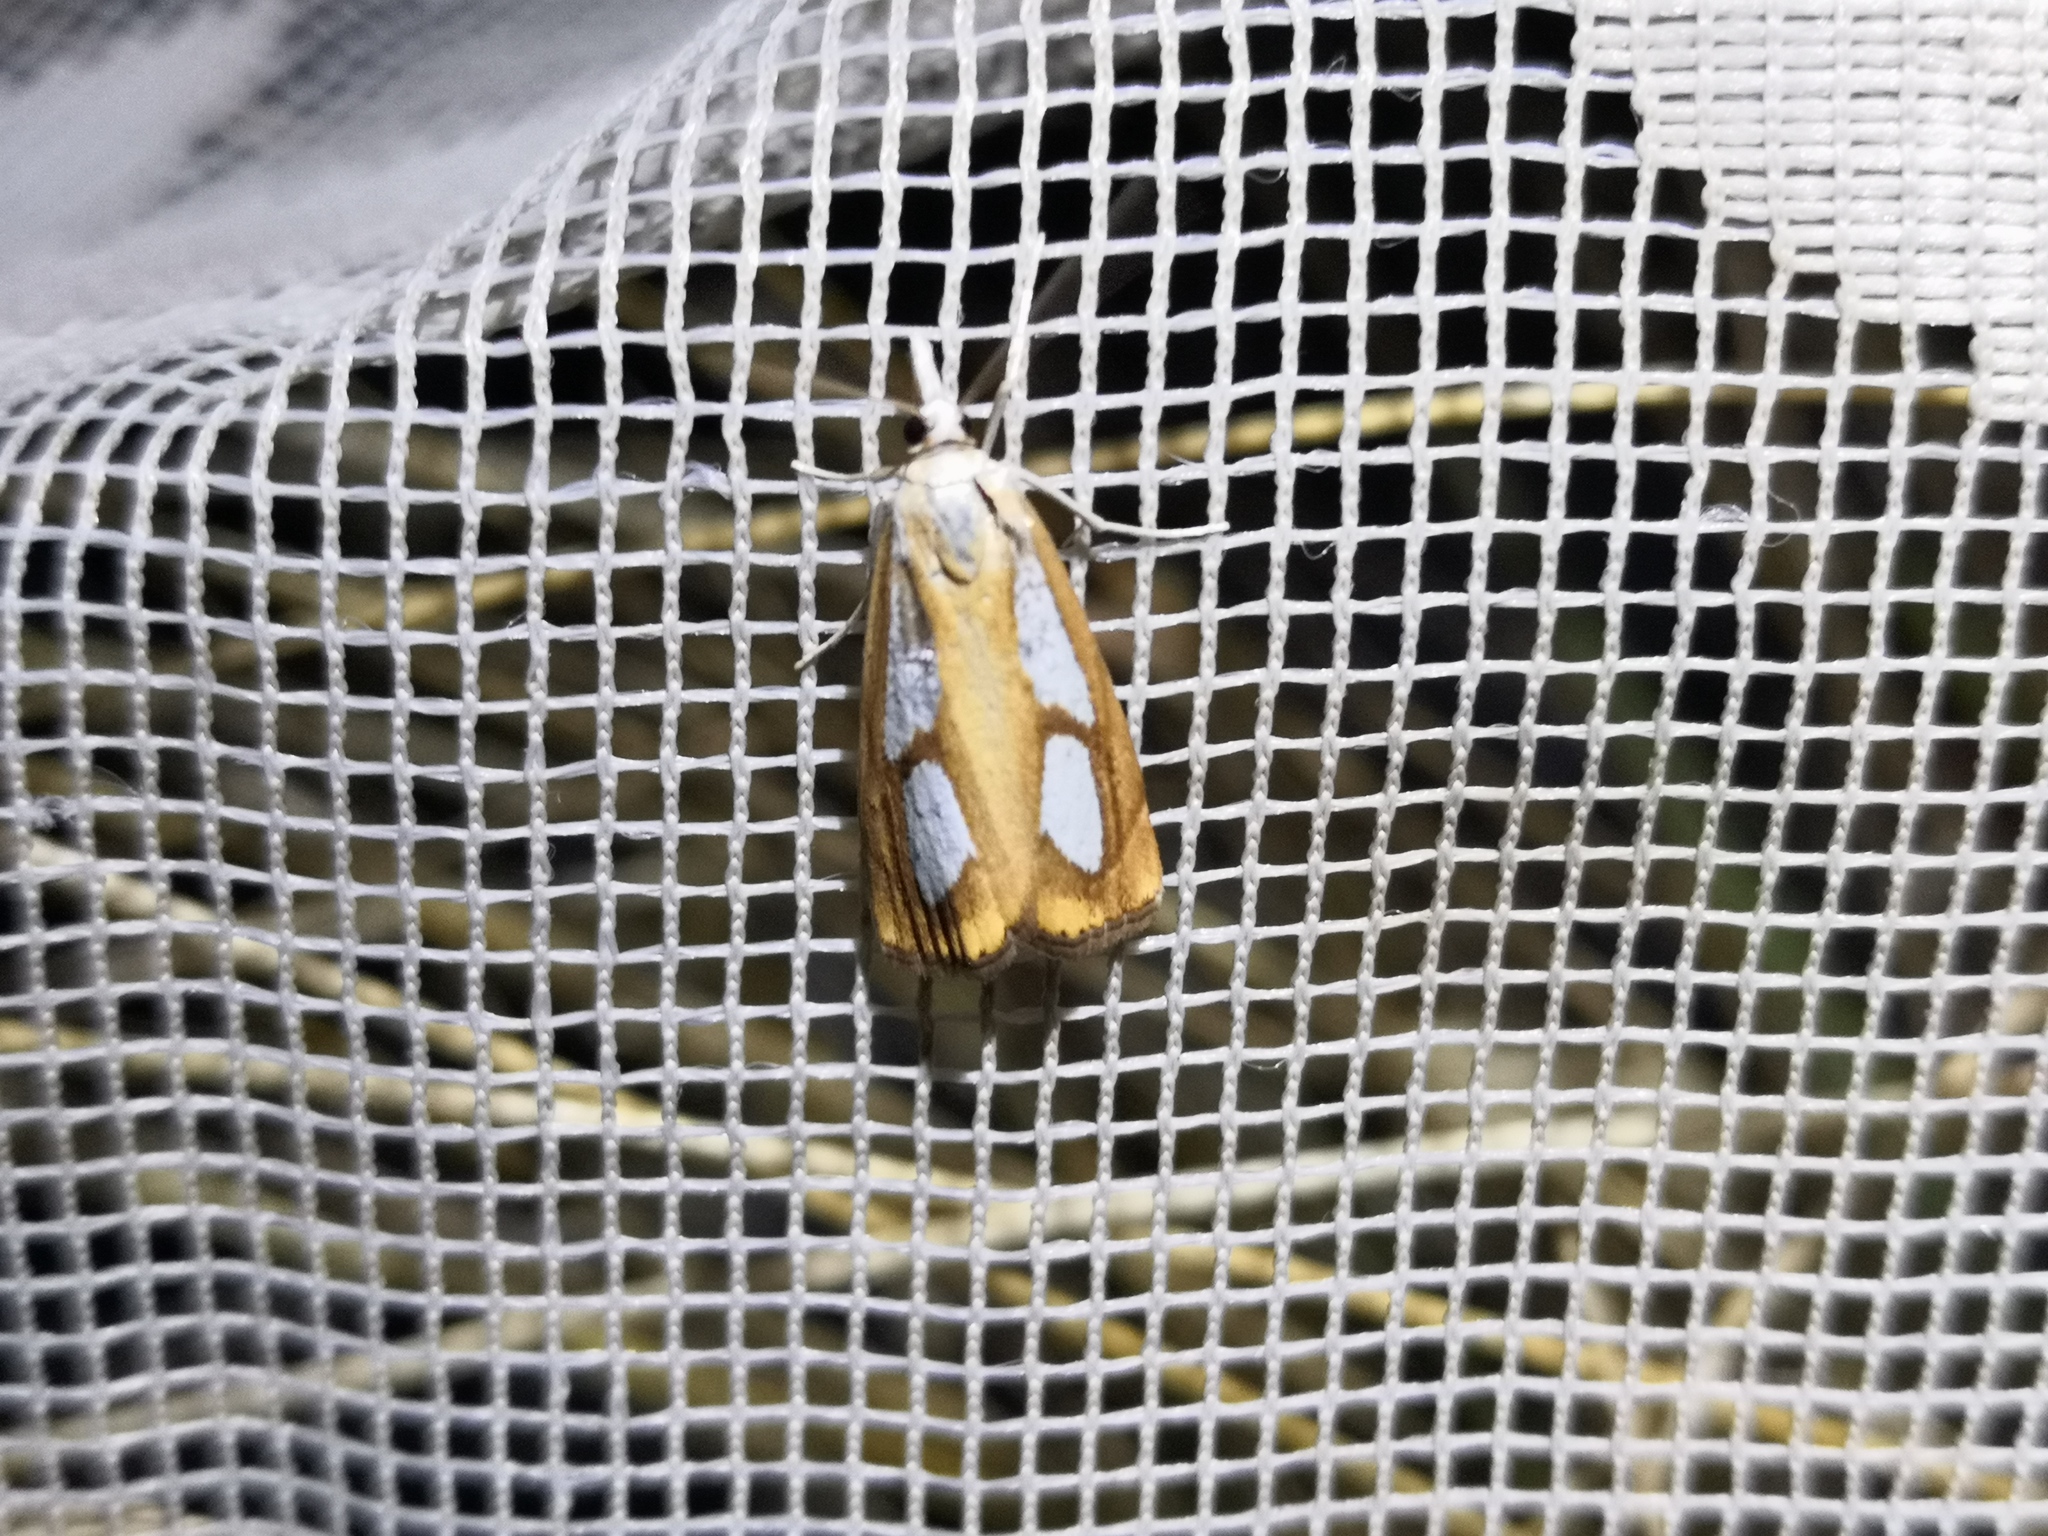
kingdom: Animalia
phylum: Arthropoda
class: Insecta
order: Lepidoptera
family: Crambidae
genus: Catoptria
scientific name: Catoptria pinella
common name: Pearl grass-veneer
